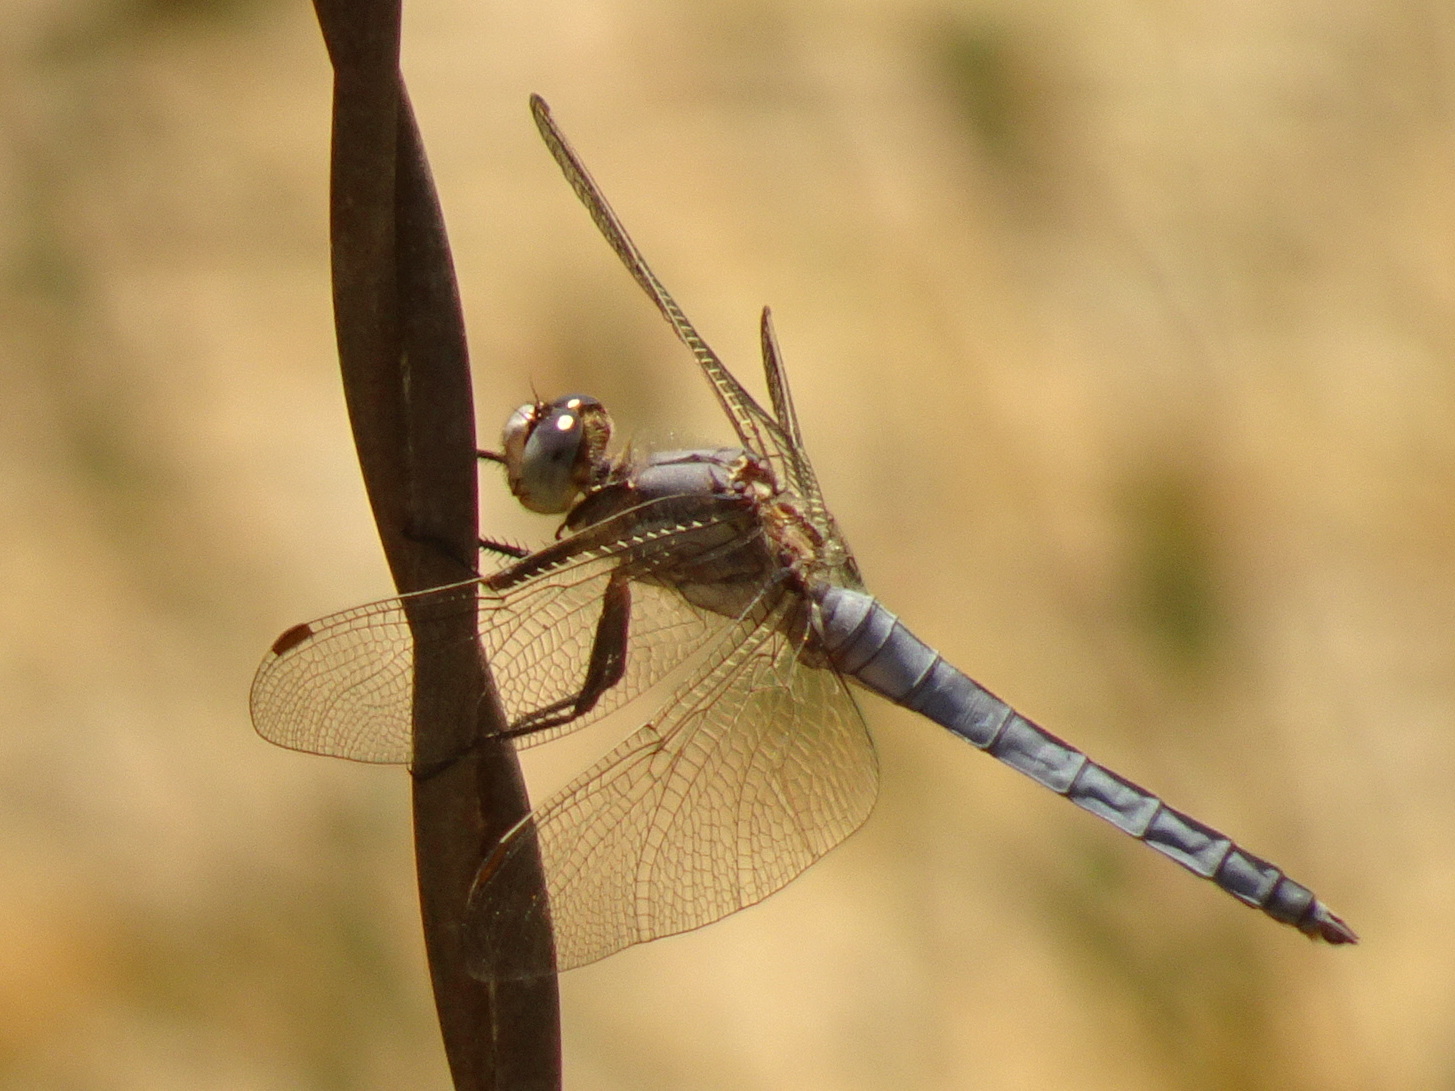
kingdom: Animalia
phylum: Arthropoda
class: Insecta
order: Odonata
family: Libellulidae
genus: Orthetrum
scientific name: Orthetrum brunneum
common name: Southern skimmer
